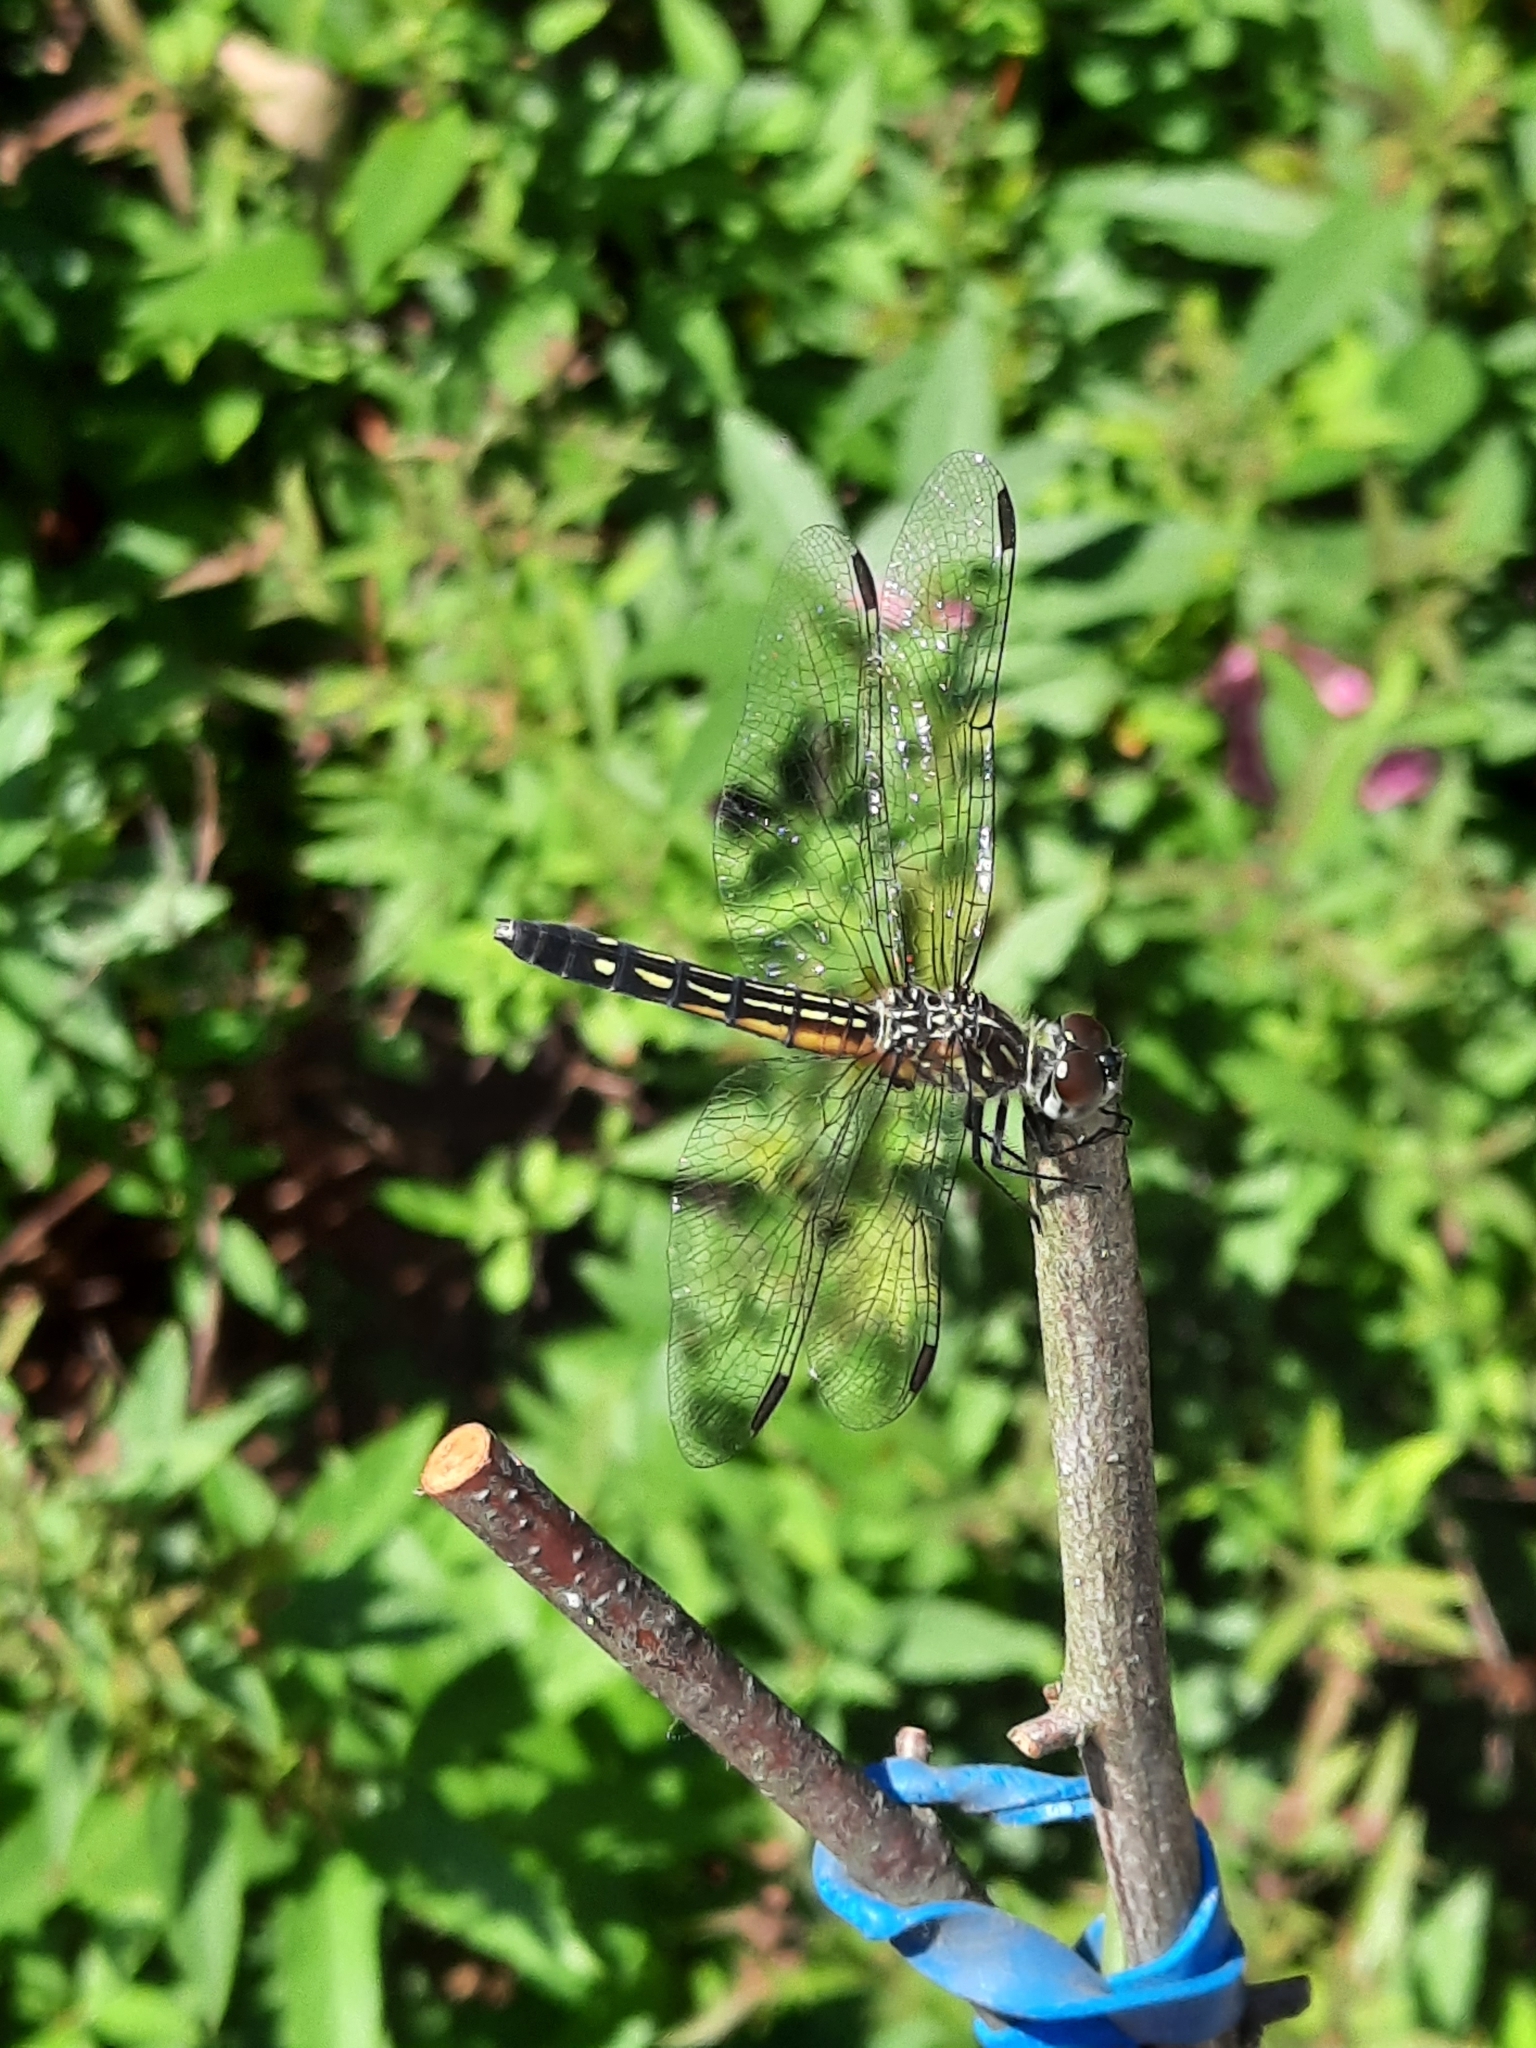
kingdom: Animalia
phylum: Arthropoda
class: Insecta
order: Odonata
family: Libellulidae
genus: Pachydiplax
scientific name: Pachydiplax longipennis
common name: Blue dasher
